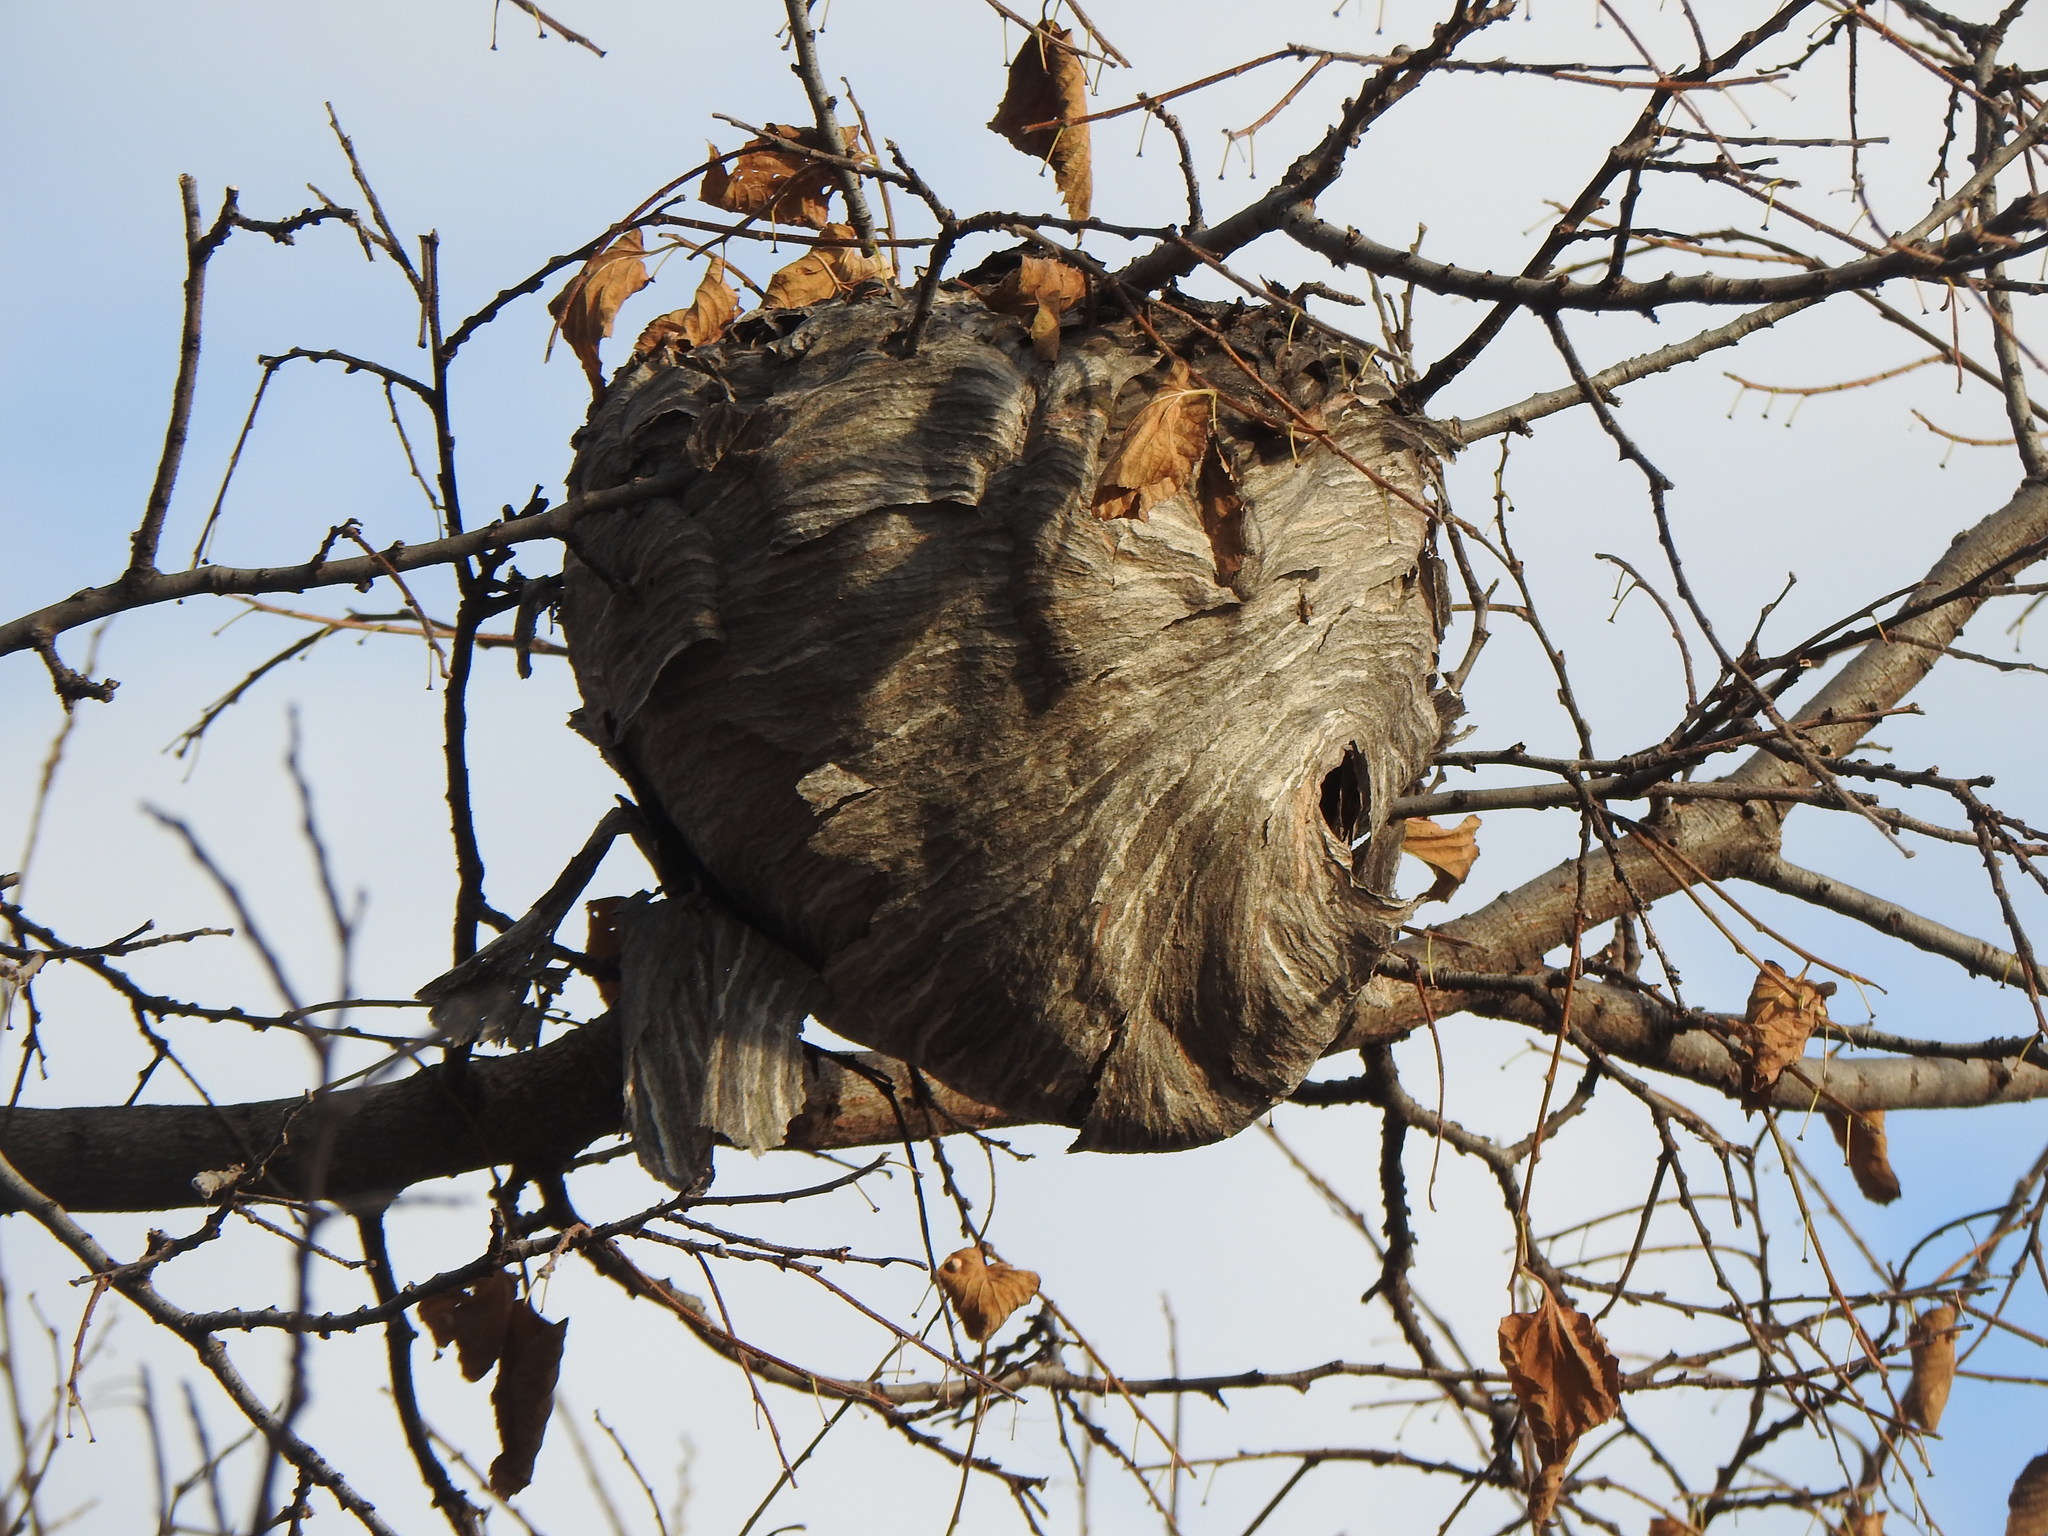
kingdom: Animalia
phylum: Arthropoda
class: Insecta
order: Hymenoptera
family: Vespidae
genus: Dolichovespula
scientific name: Dolichovespula
